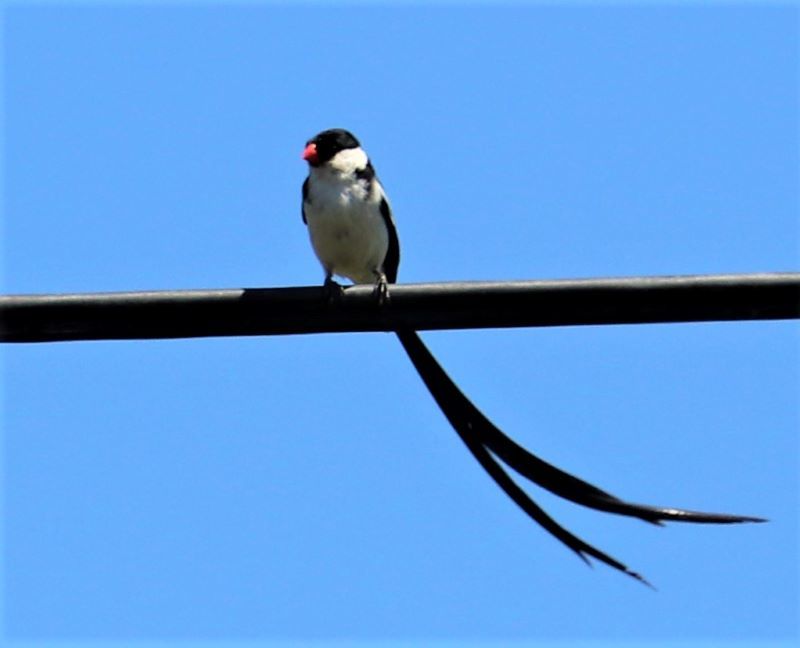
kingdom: Animalia
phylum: Chordata
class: Aves
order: Passeriformes
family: Viduidae
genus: Vidua
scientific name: Vidua macroura
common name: Pin-tailed whydah
